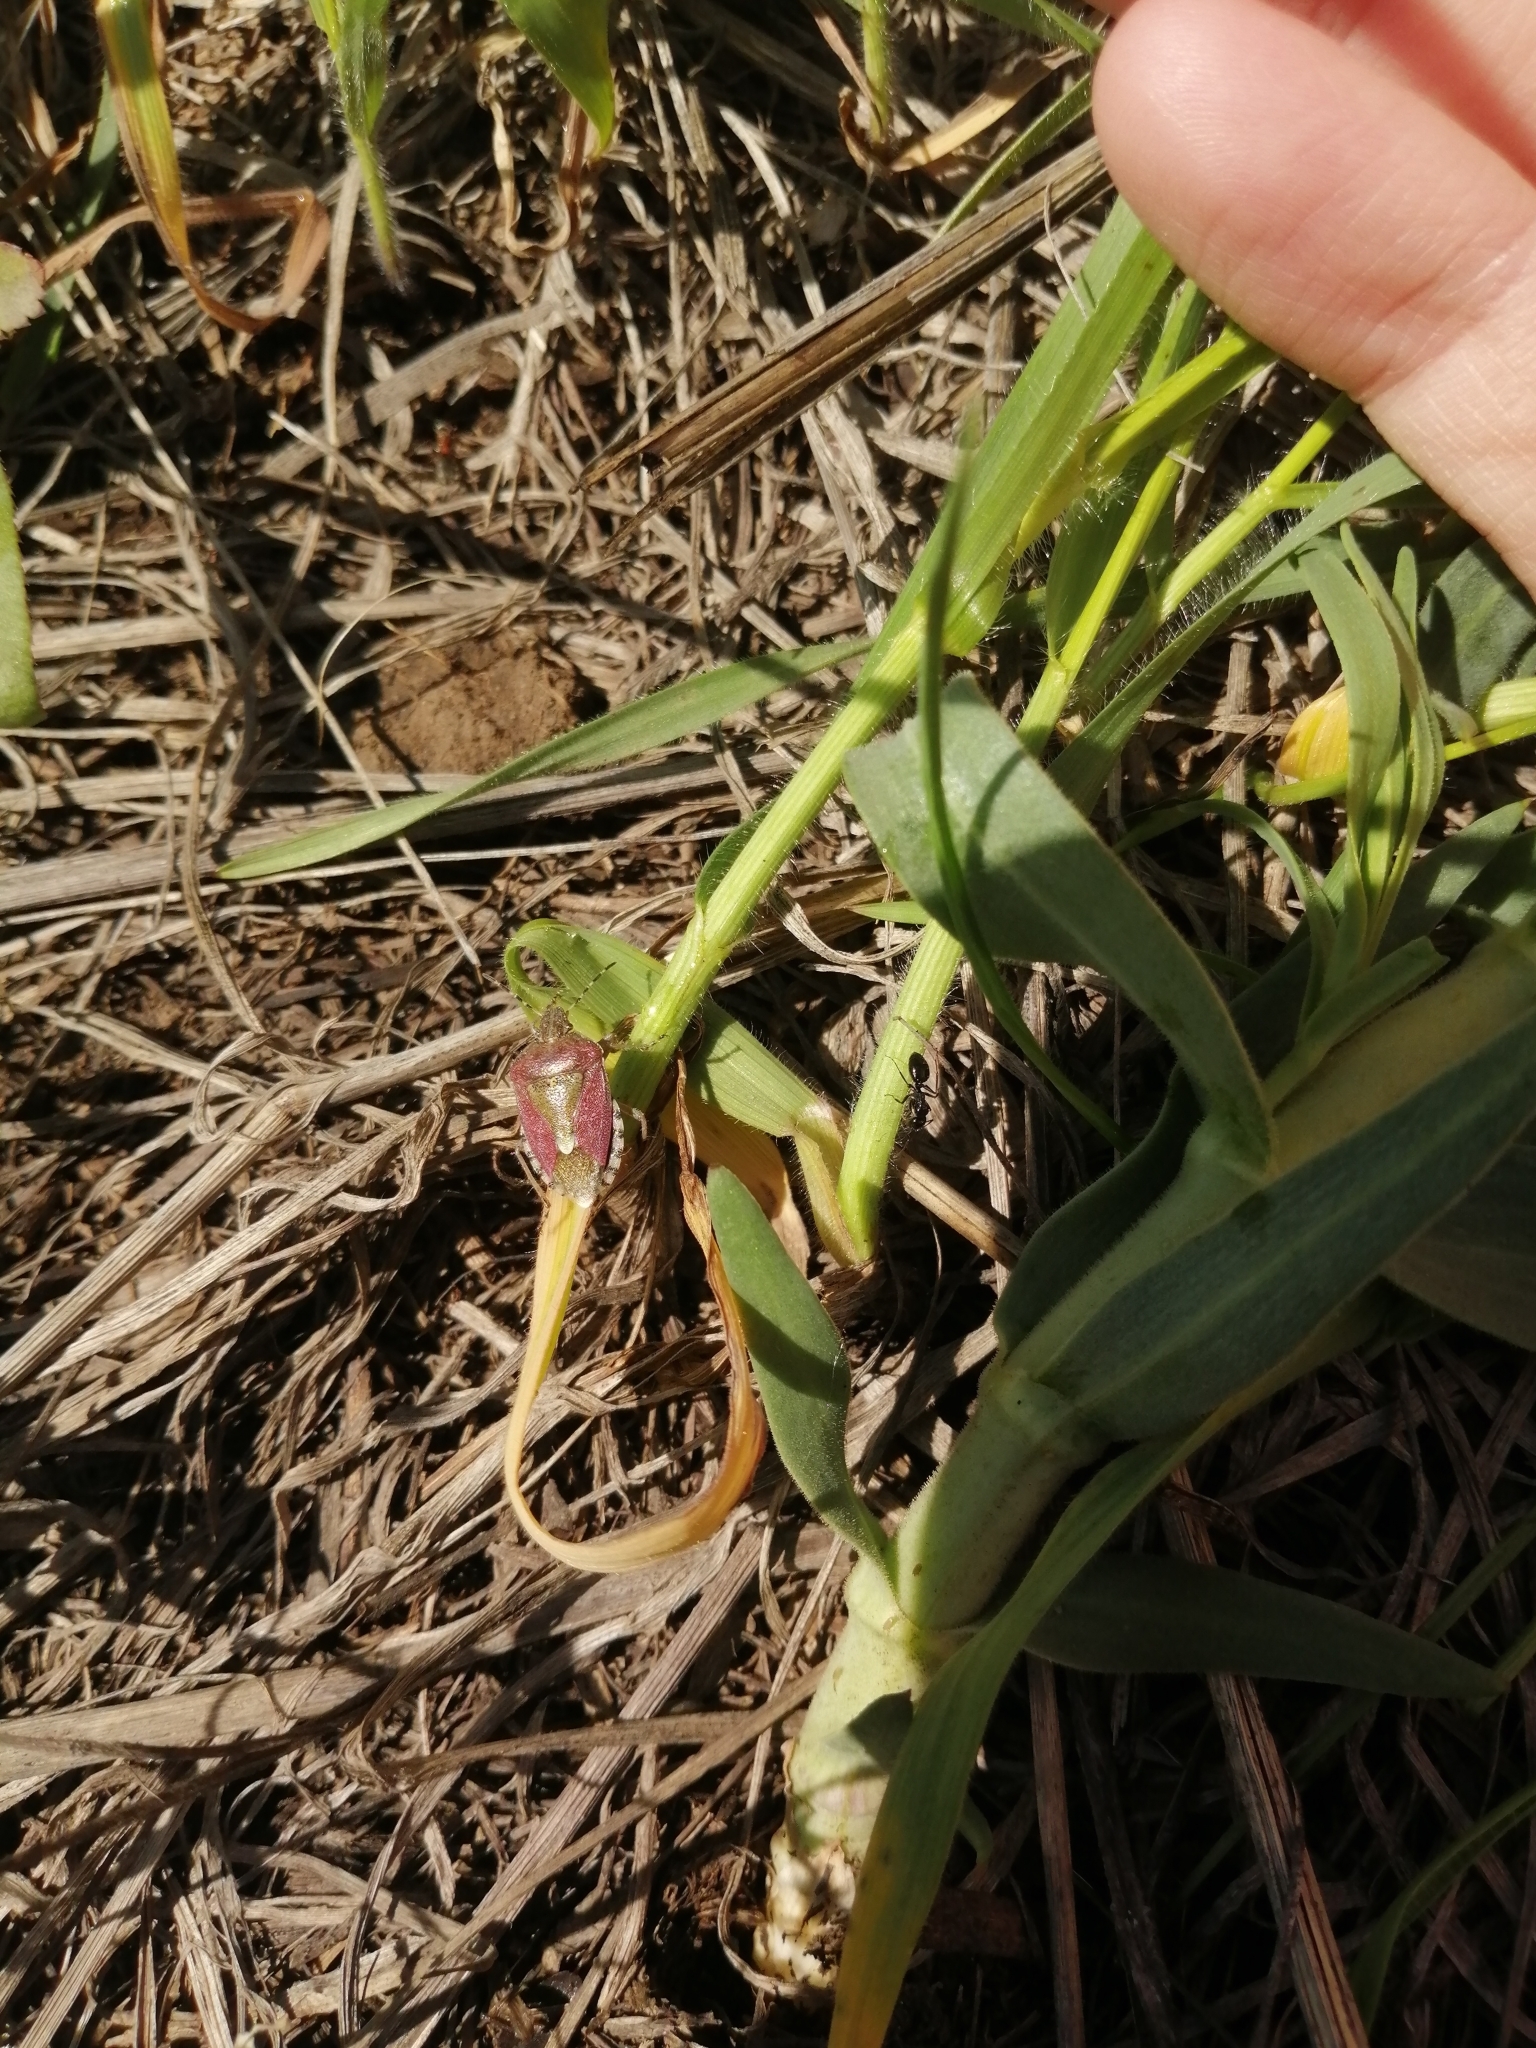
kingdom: Animalia
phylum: Arthropoda
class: Insecta
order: Hemiptera
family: Pentatomidae
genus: Dolycoris
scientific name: Dolycoris baccarum
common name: Sloe bug
